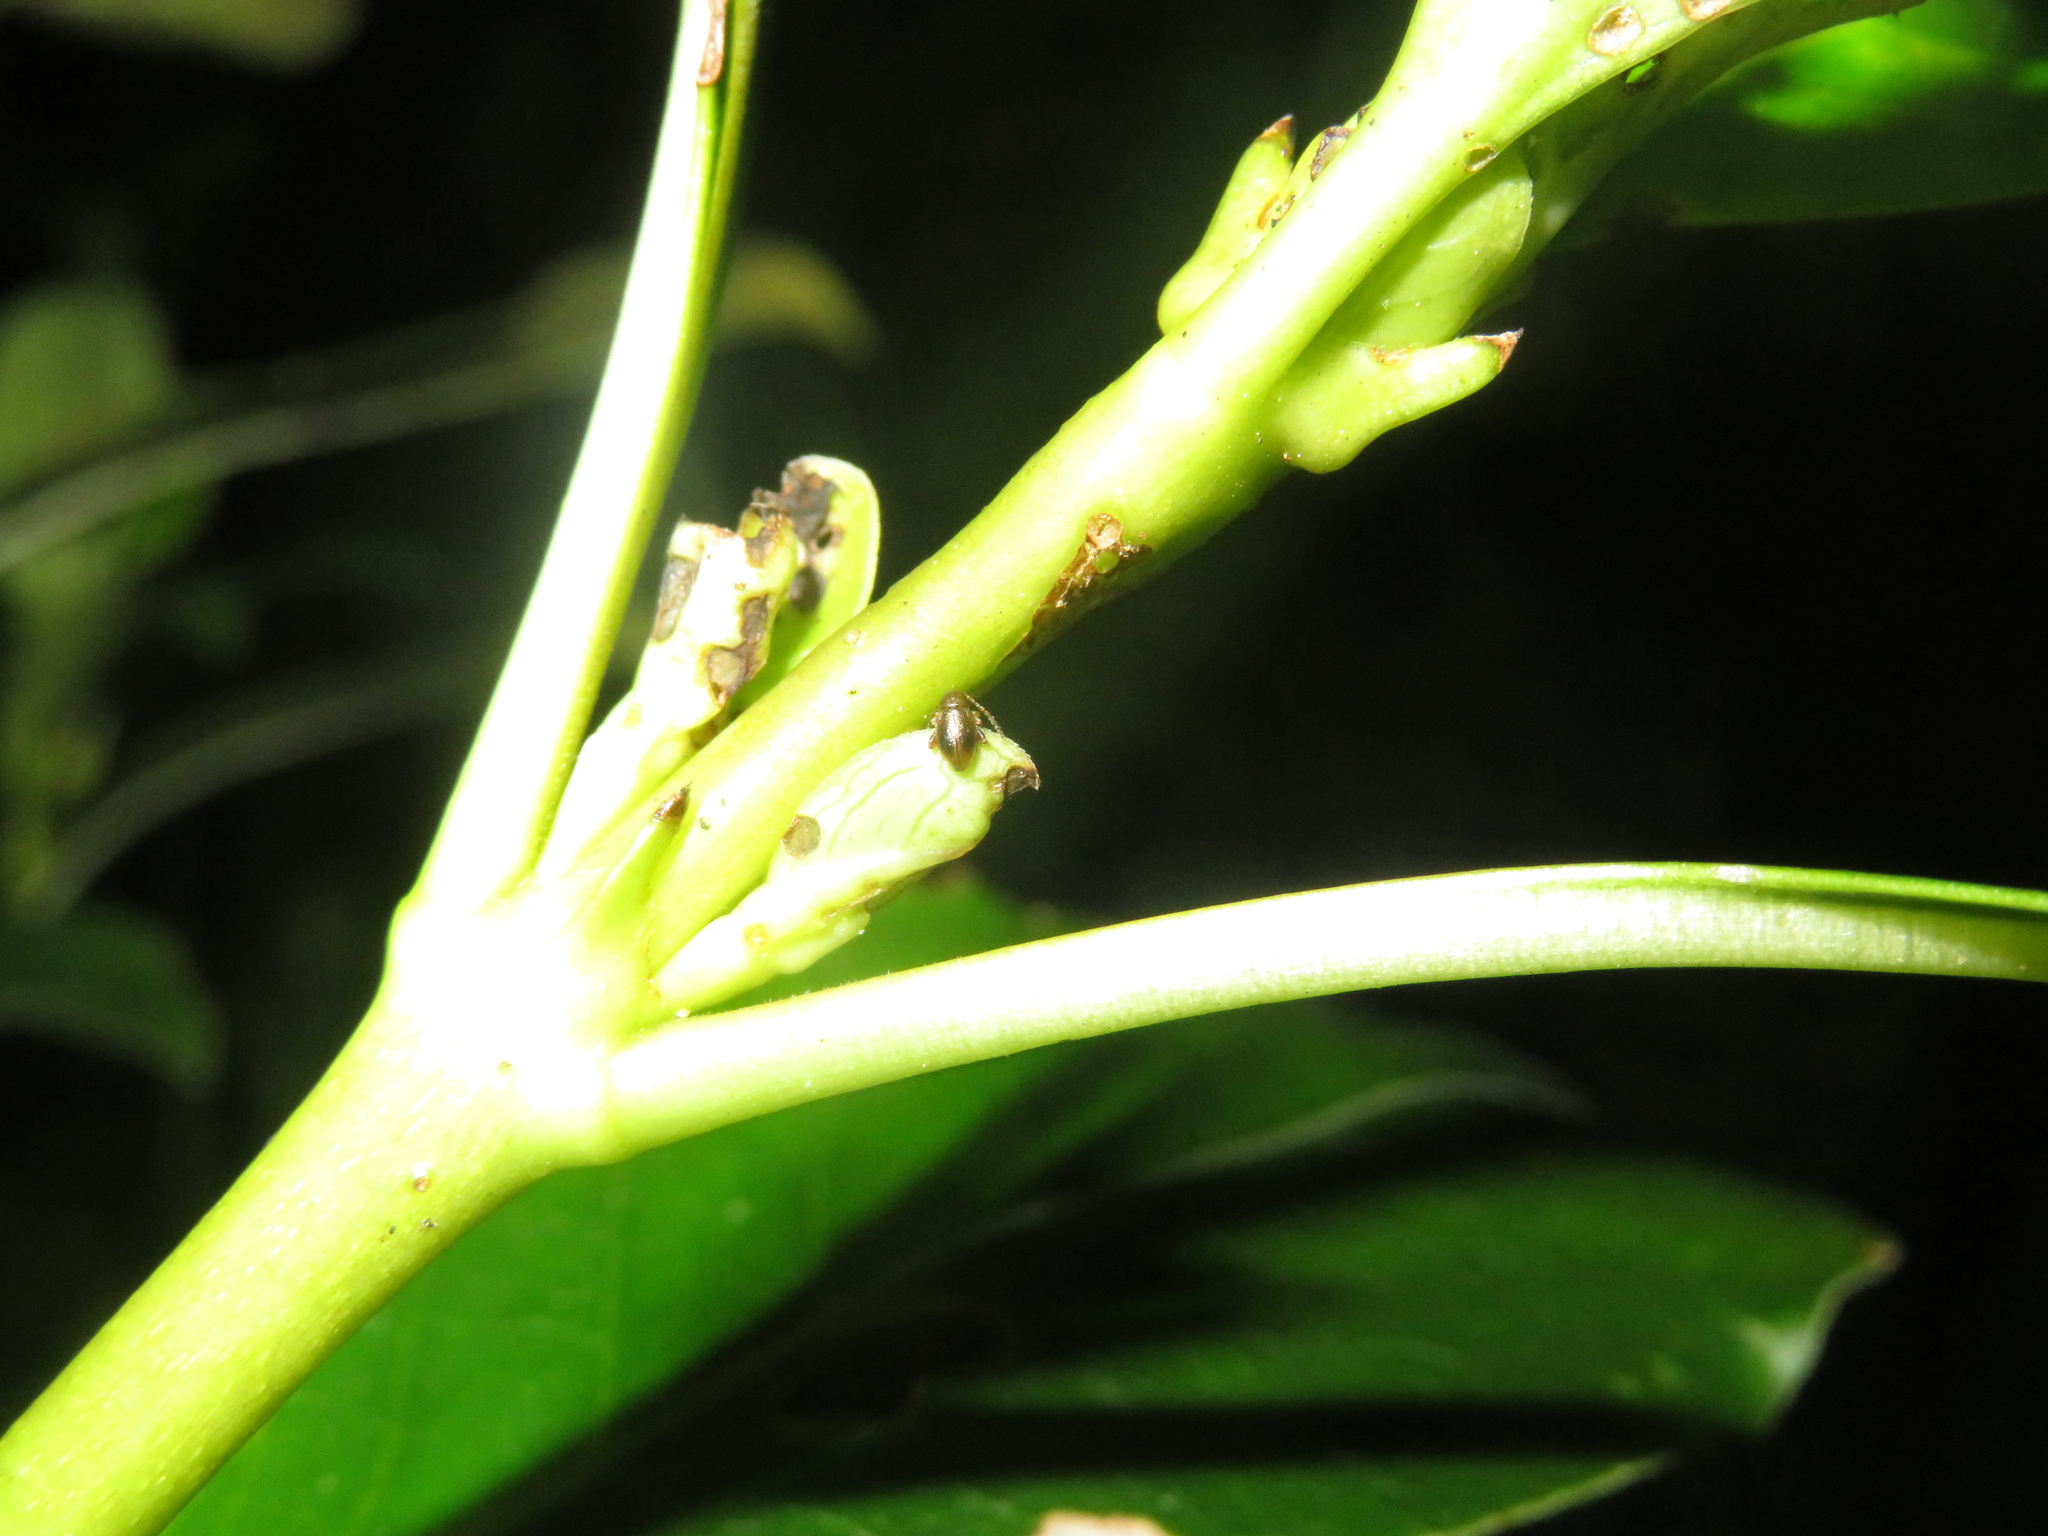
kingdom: Animalia
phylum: Arthropoda
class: Insecta
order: Coleoptera
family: Chrysomelidae
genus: Trachytetra
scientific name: Trachytetra
